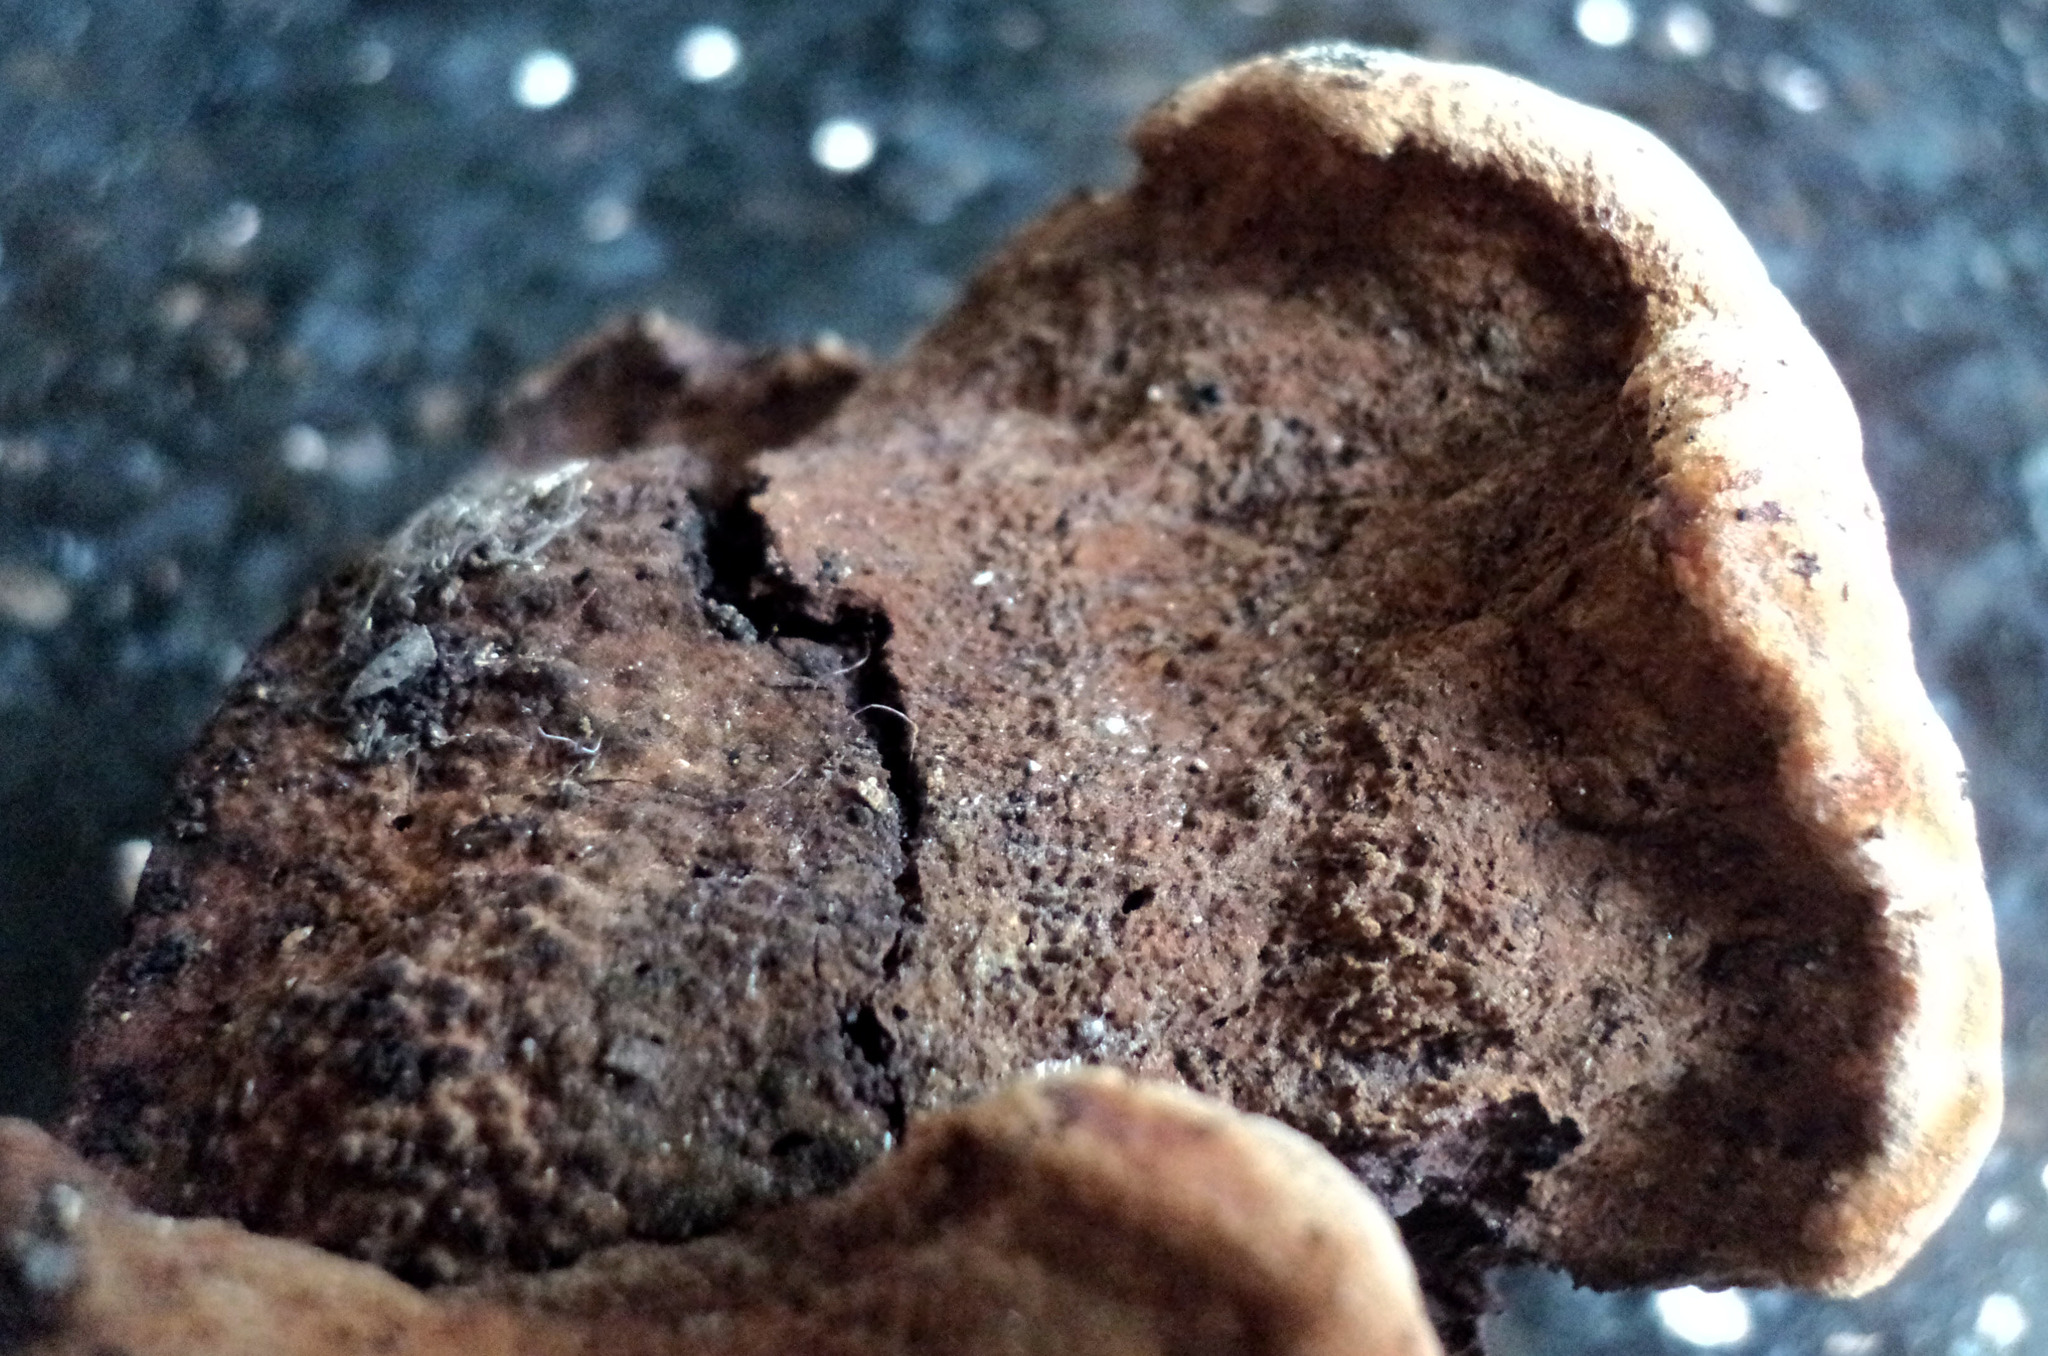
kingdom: Fungi
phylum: Basidiomycota
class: Agaricomycetes
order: Polyporales
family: Laetiporaceae
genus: Phaeolus
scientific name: Phaeolus schweinitzii
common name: Dyer's mazegill
